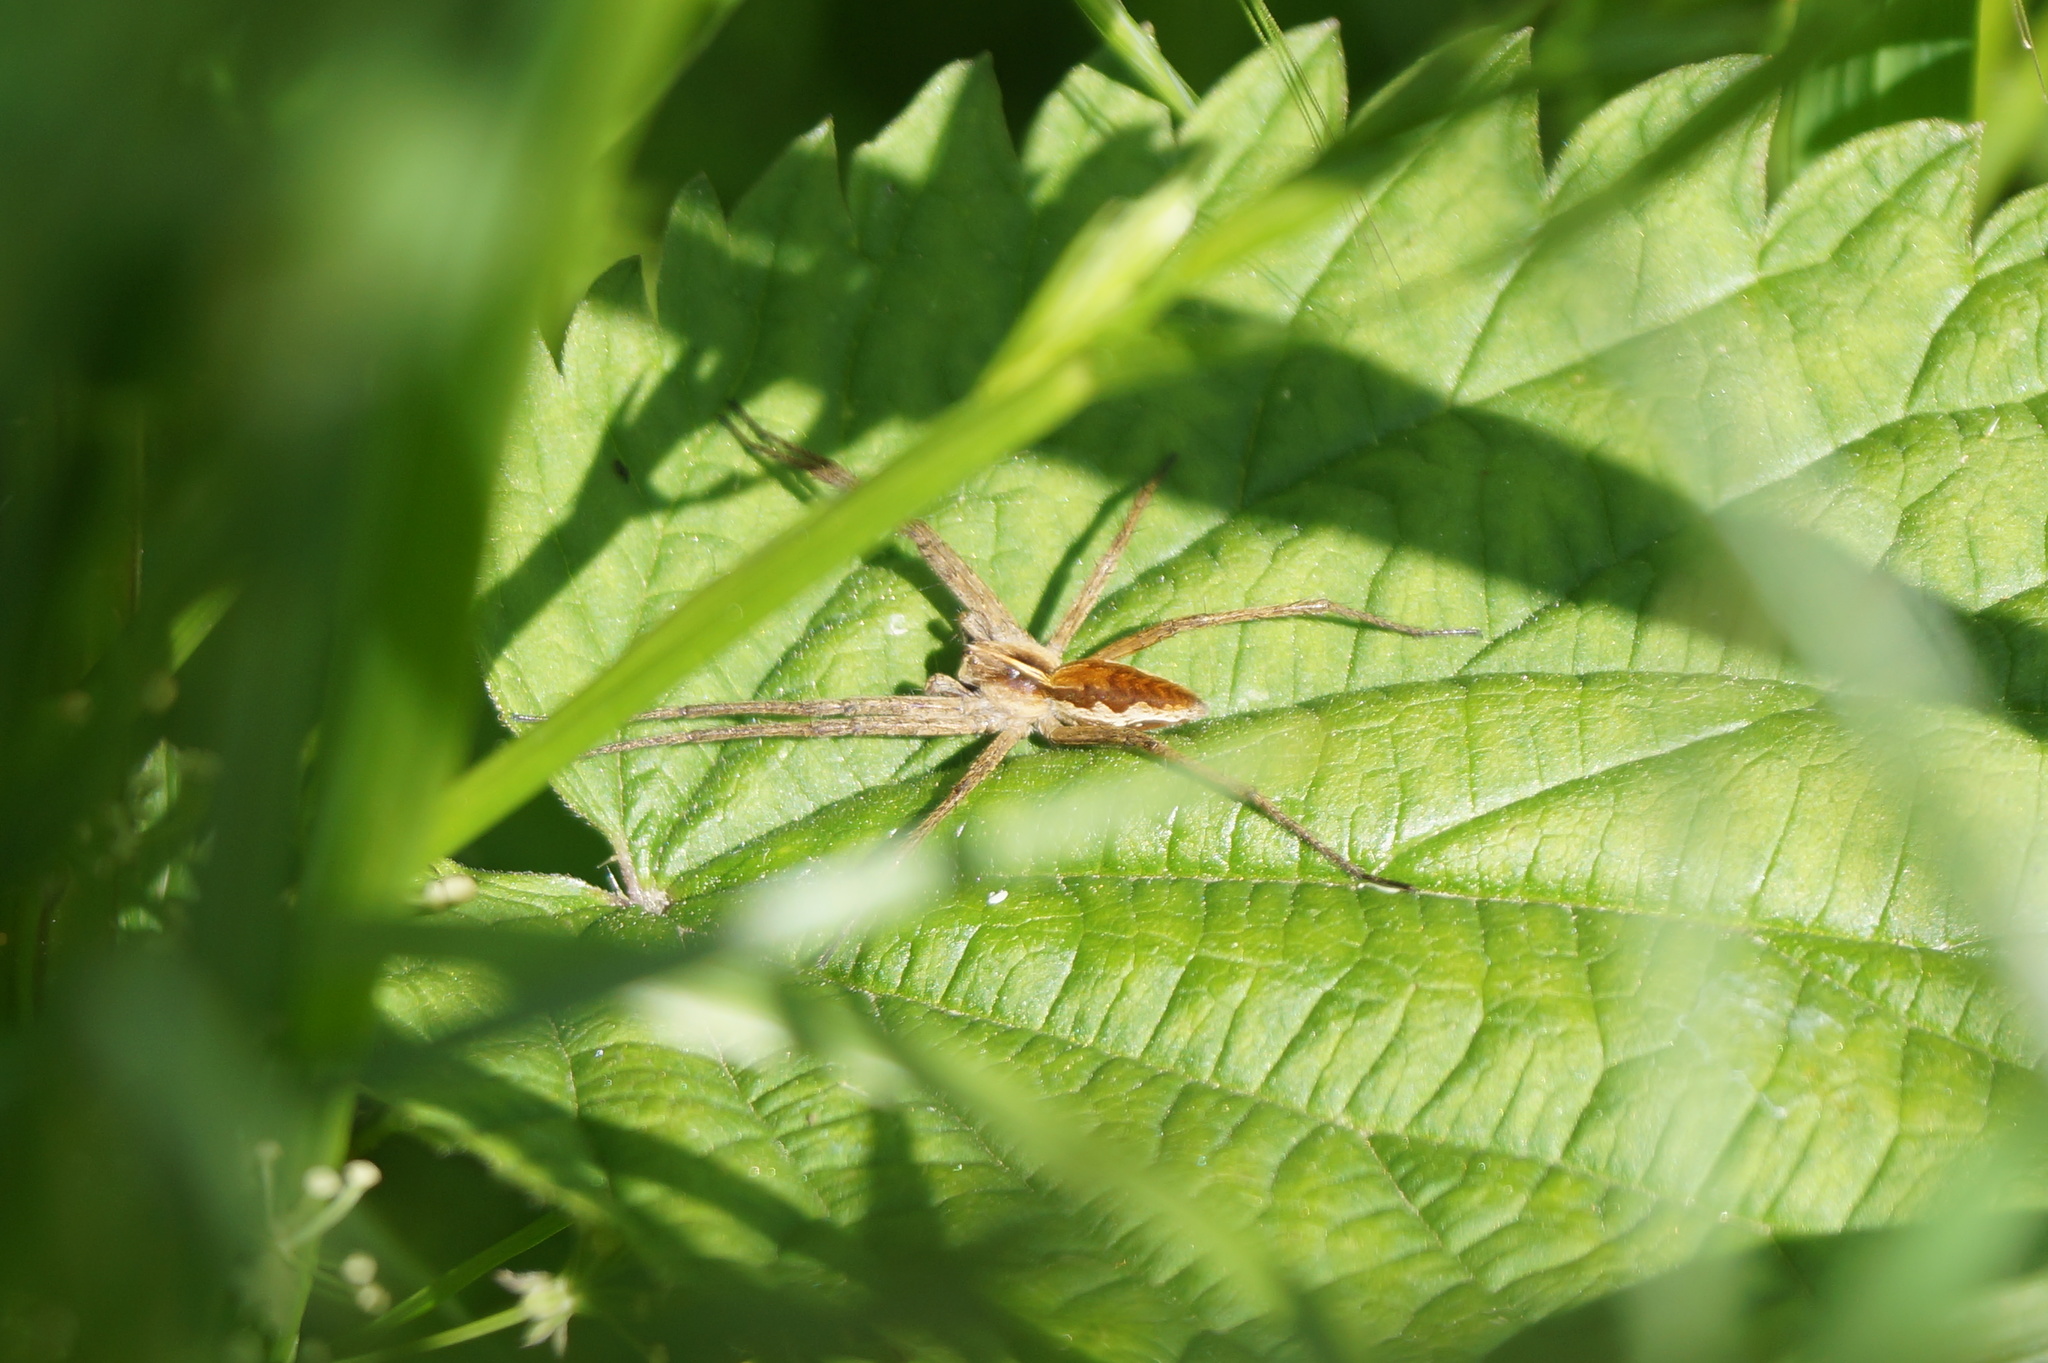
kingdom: Animalia
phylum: Arthropoda
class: Arachnida
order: Araneae
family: Pisauridae
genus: Pisaura
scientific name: Pisaura mirabilis
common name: Tent spider
